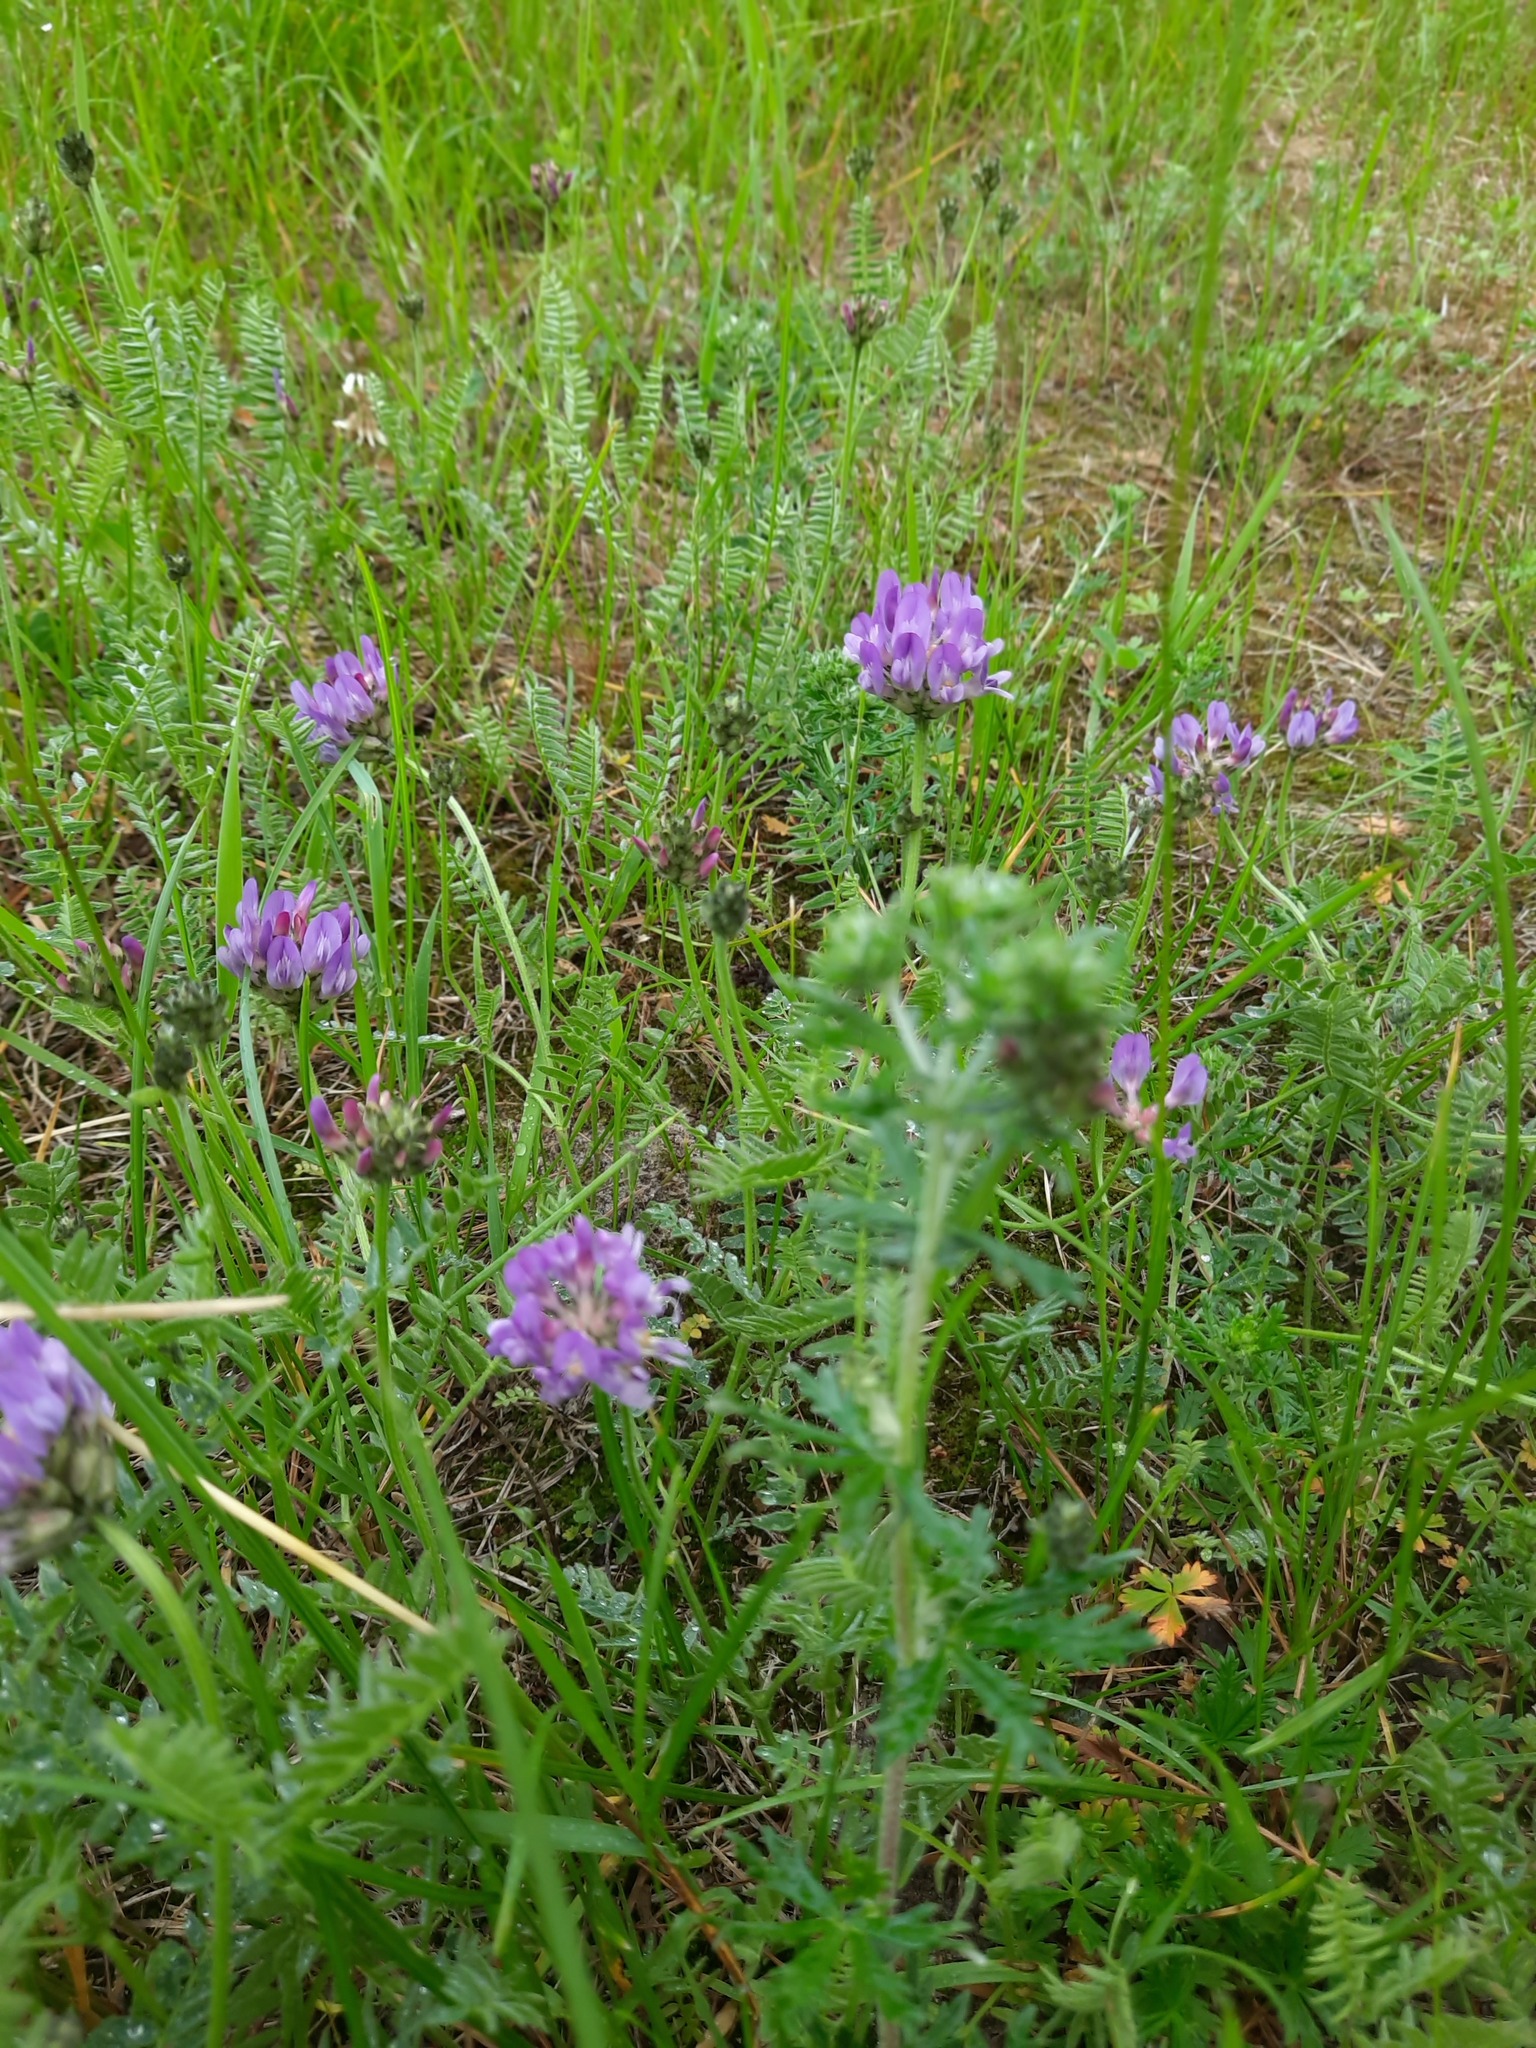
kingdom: Plantae
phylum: Tracheophyta
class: Magnoliopsida
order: Fabales
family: Fabaceae
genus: Astragalus
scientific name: Astragalus danicus
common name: Purple milk-vetch
